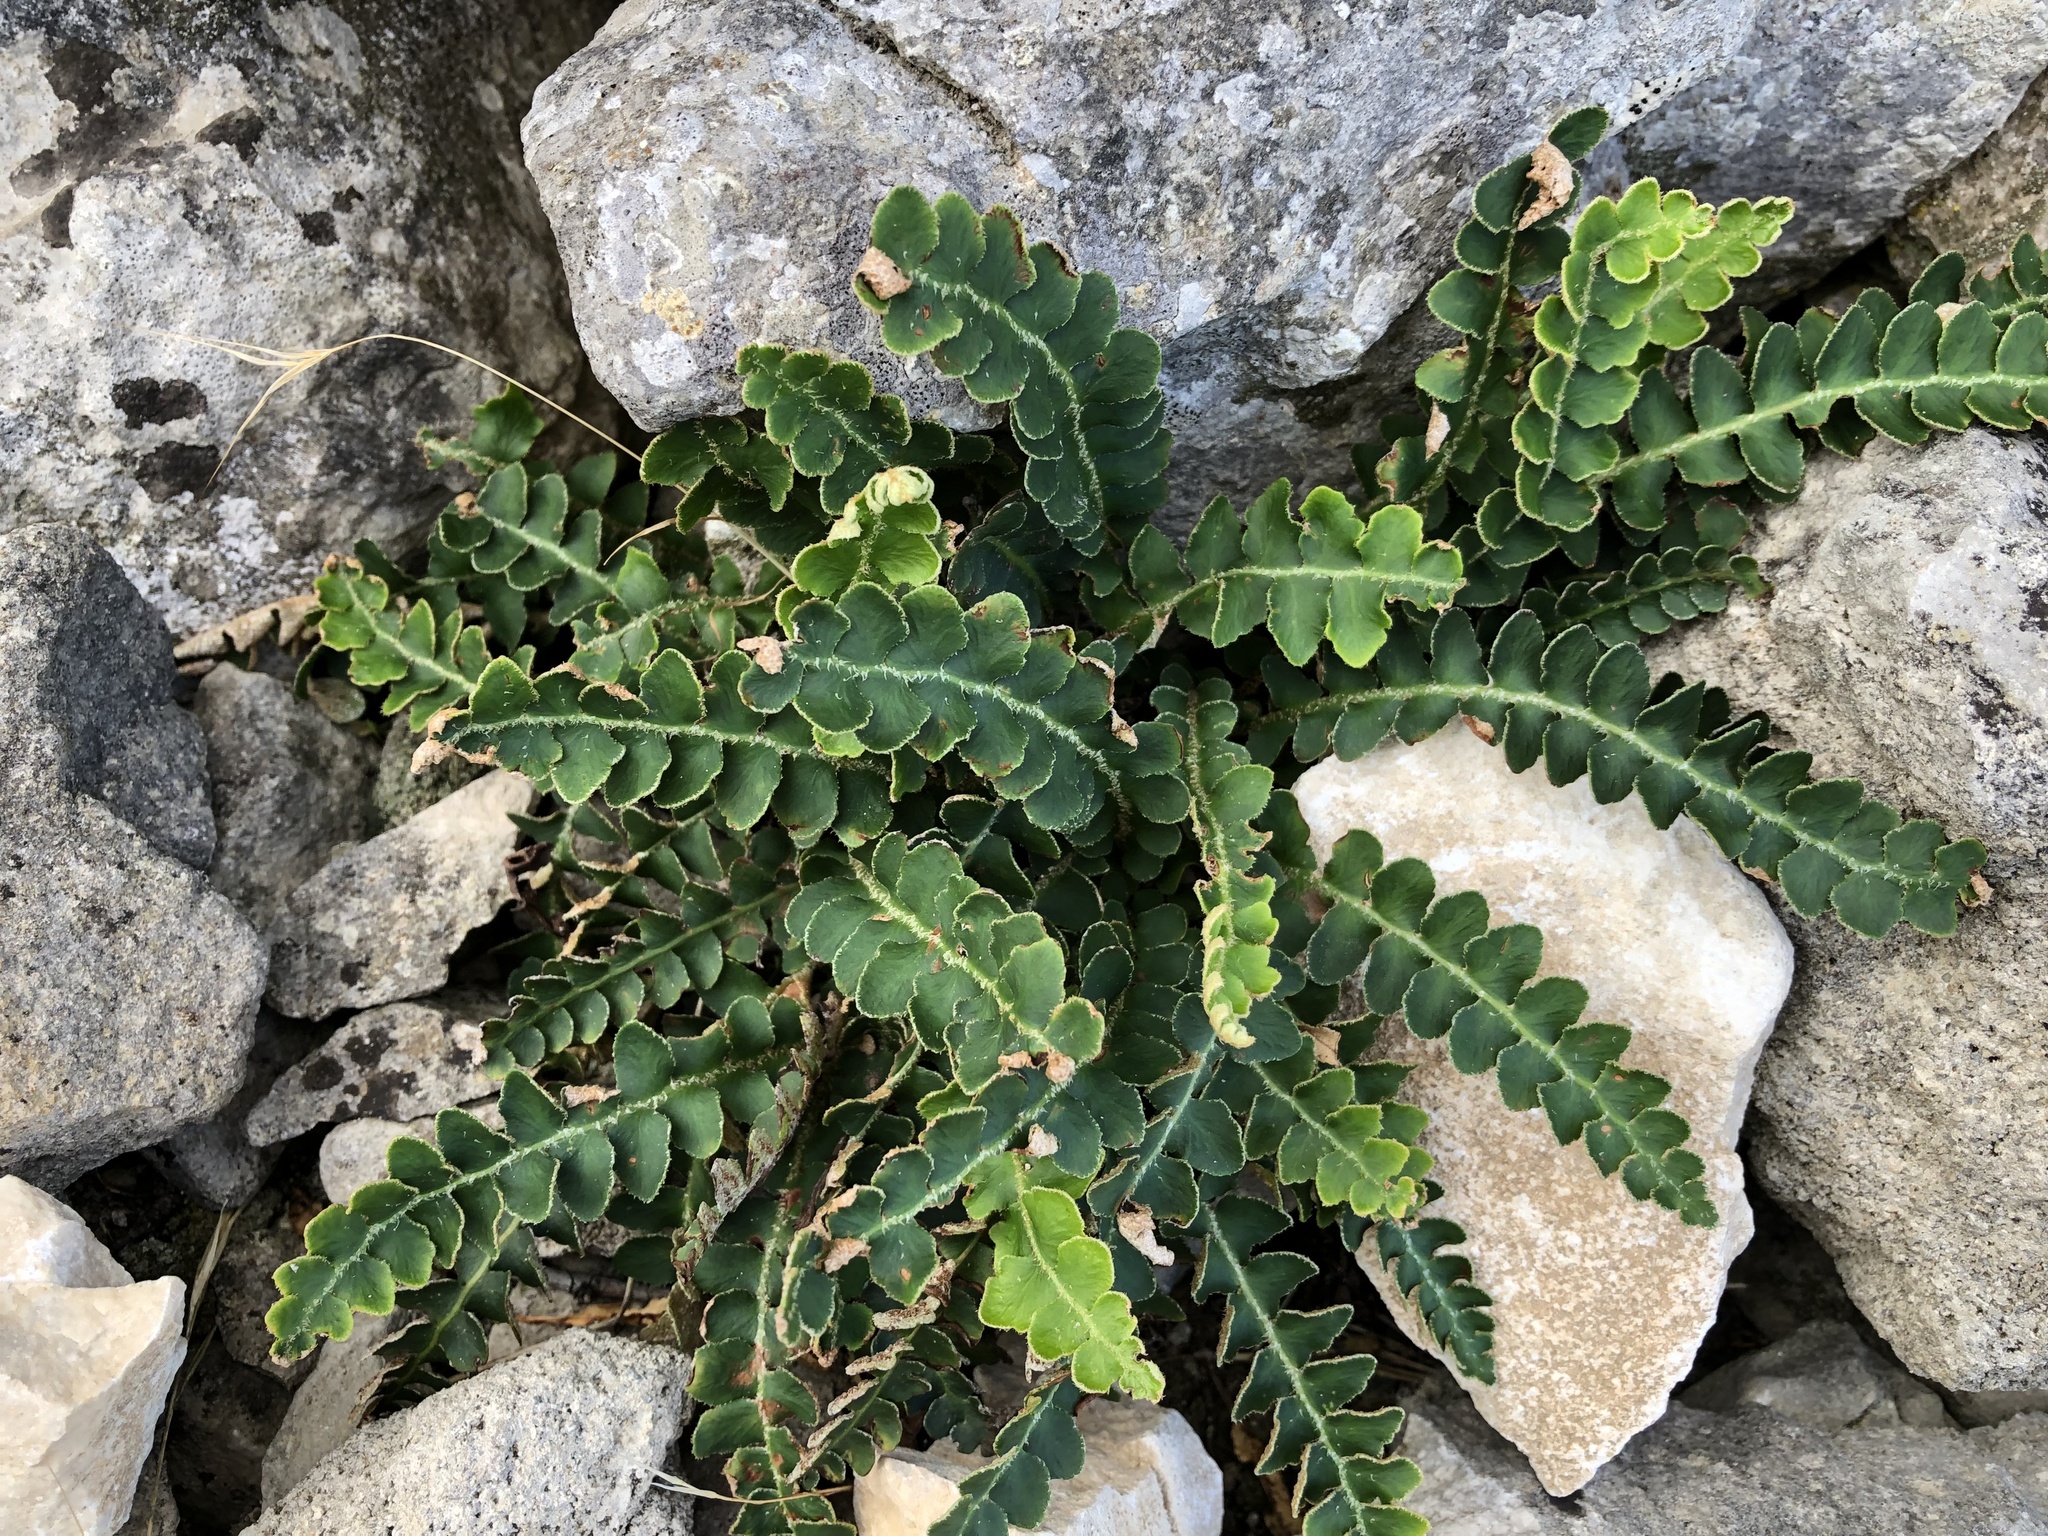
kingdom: Plantae
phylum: Tracheophyta
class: Polypodiopsida
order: Polypodiales
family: Aspleniaceae
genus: Asplenium
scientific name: Asplenium ceterach
